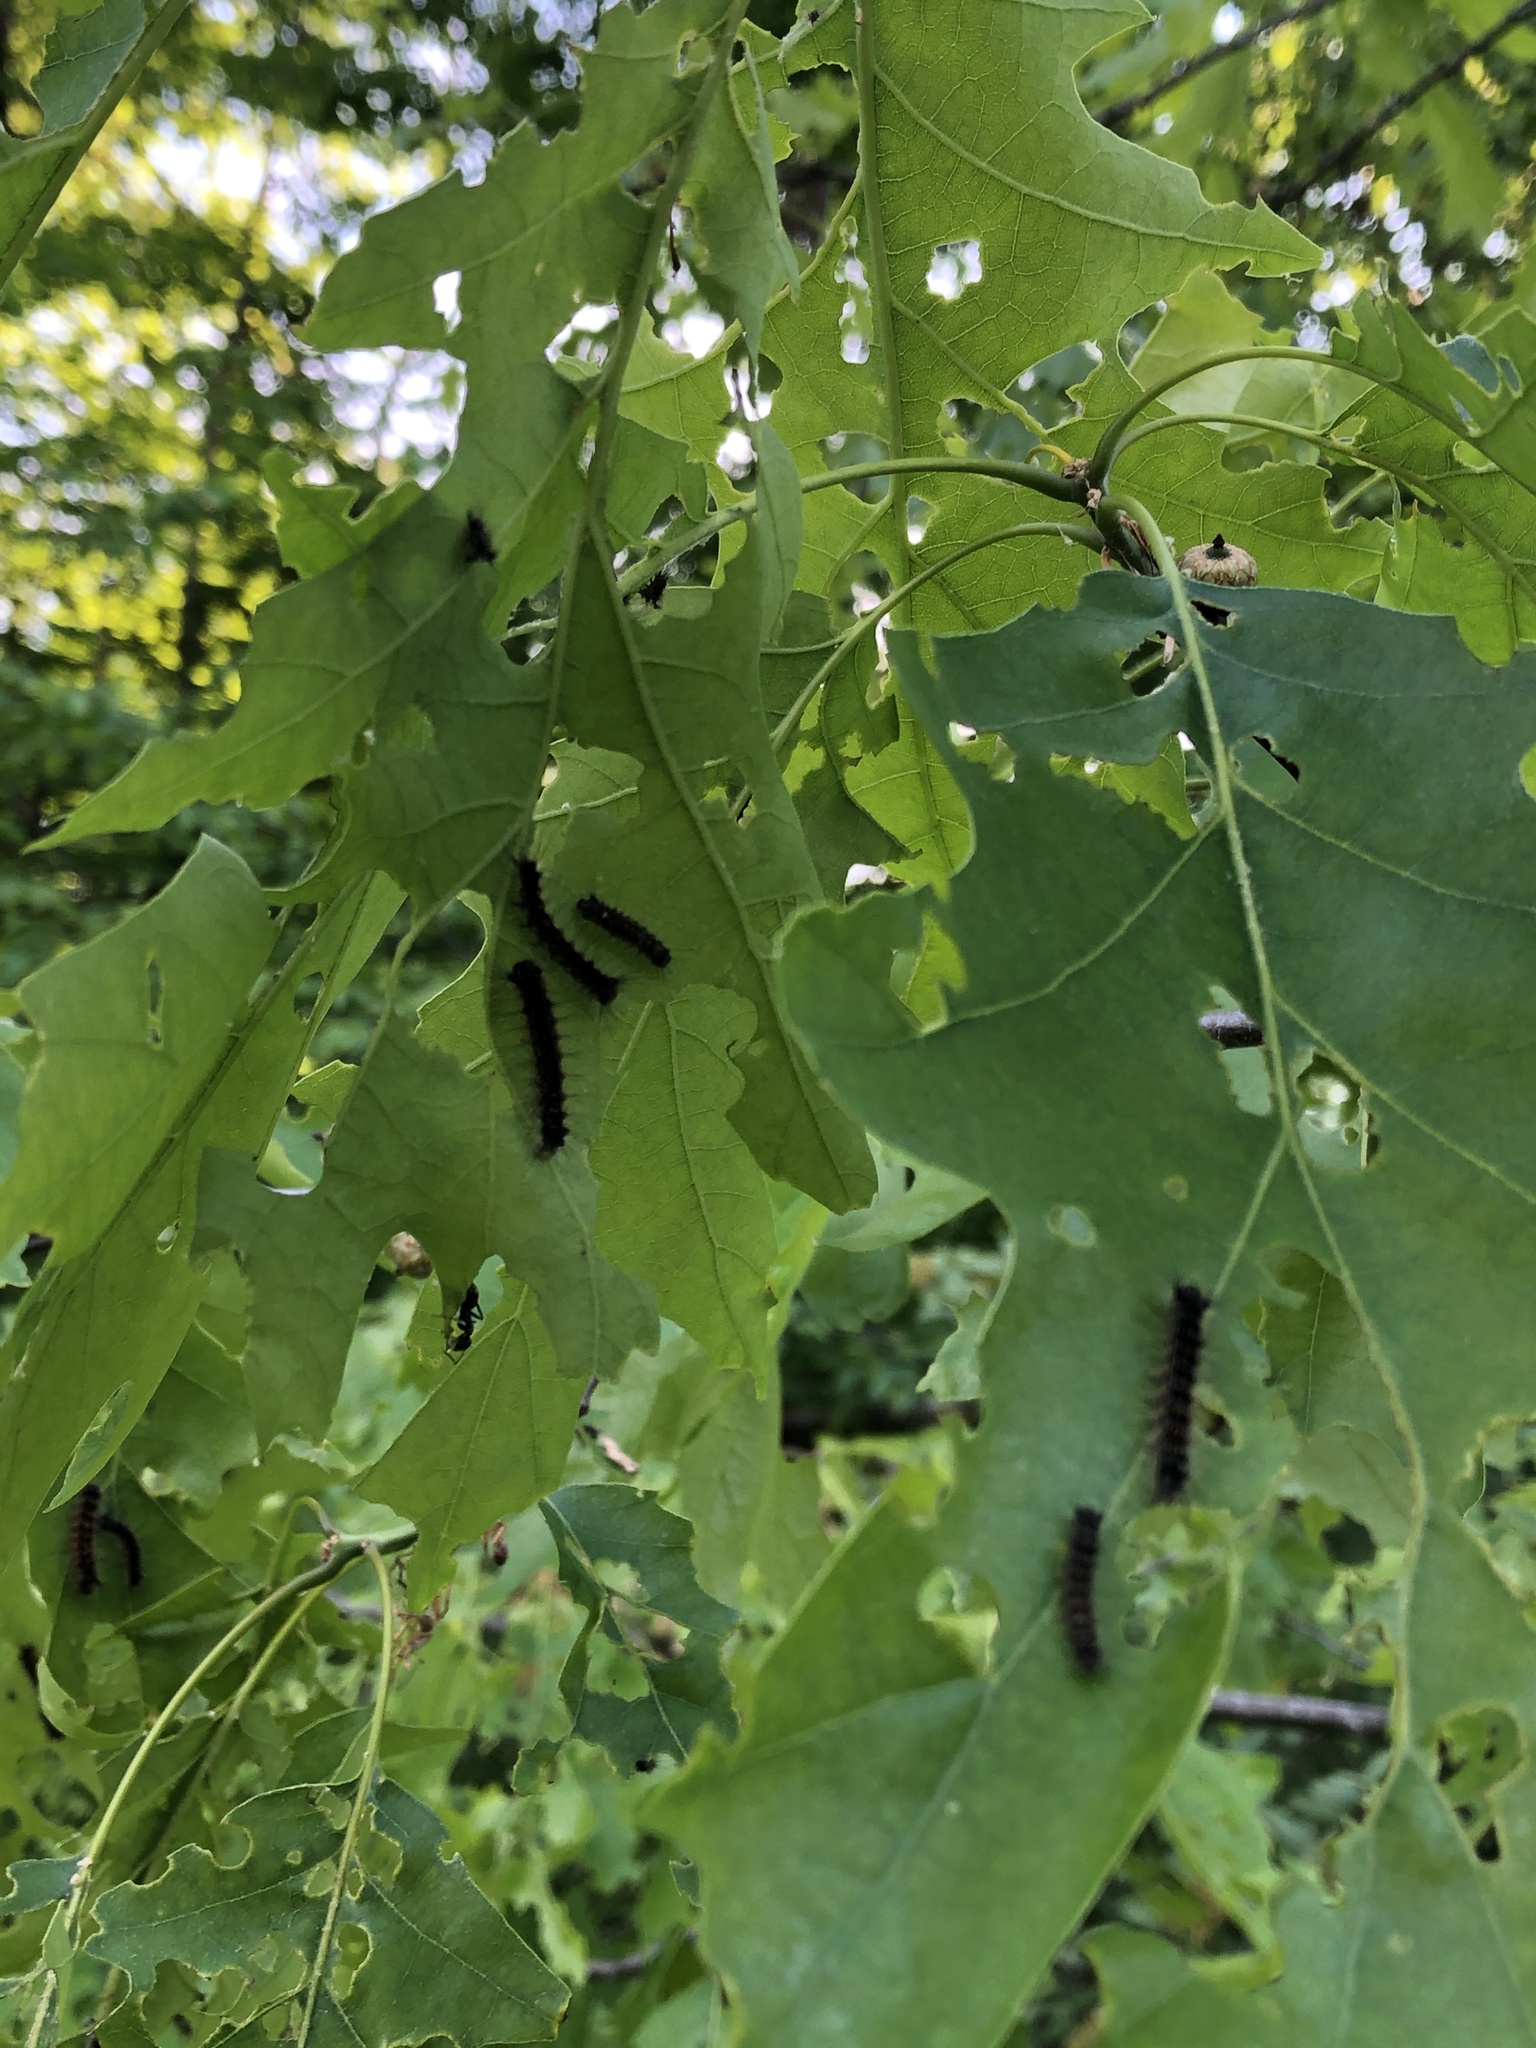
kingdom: Animalia
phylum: Arthropoda
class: Insecta
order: Lepidoptera
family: Erebidae
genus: Lymantria
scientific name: Lymantria dispar
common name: Gypsy moth
